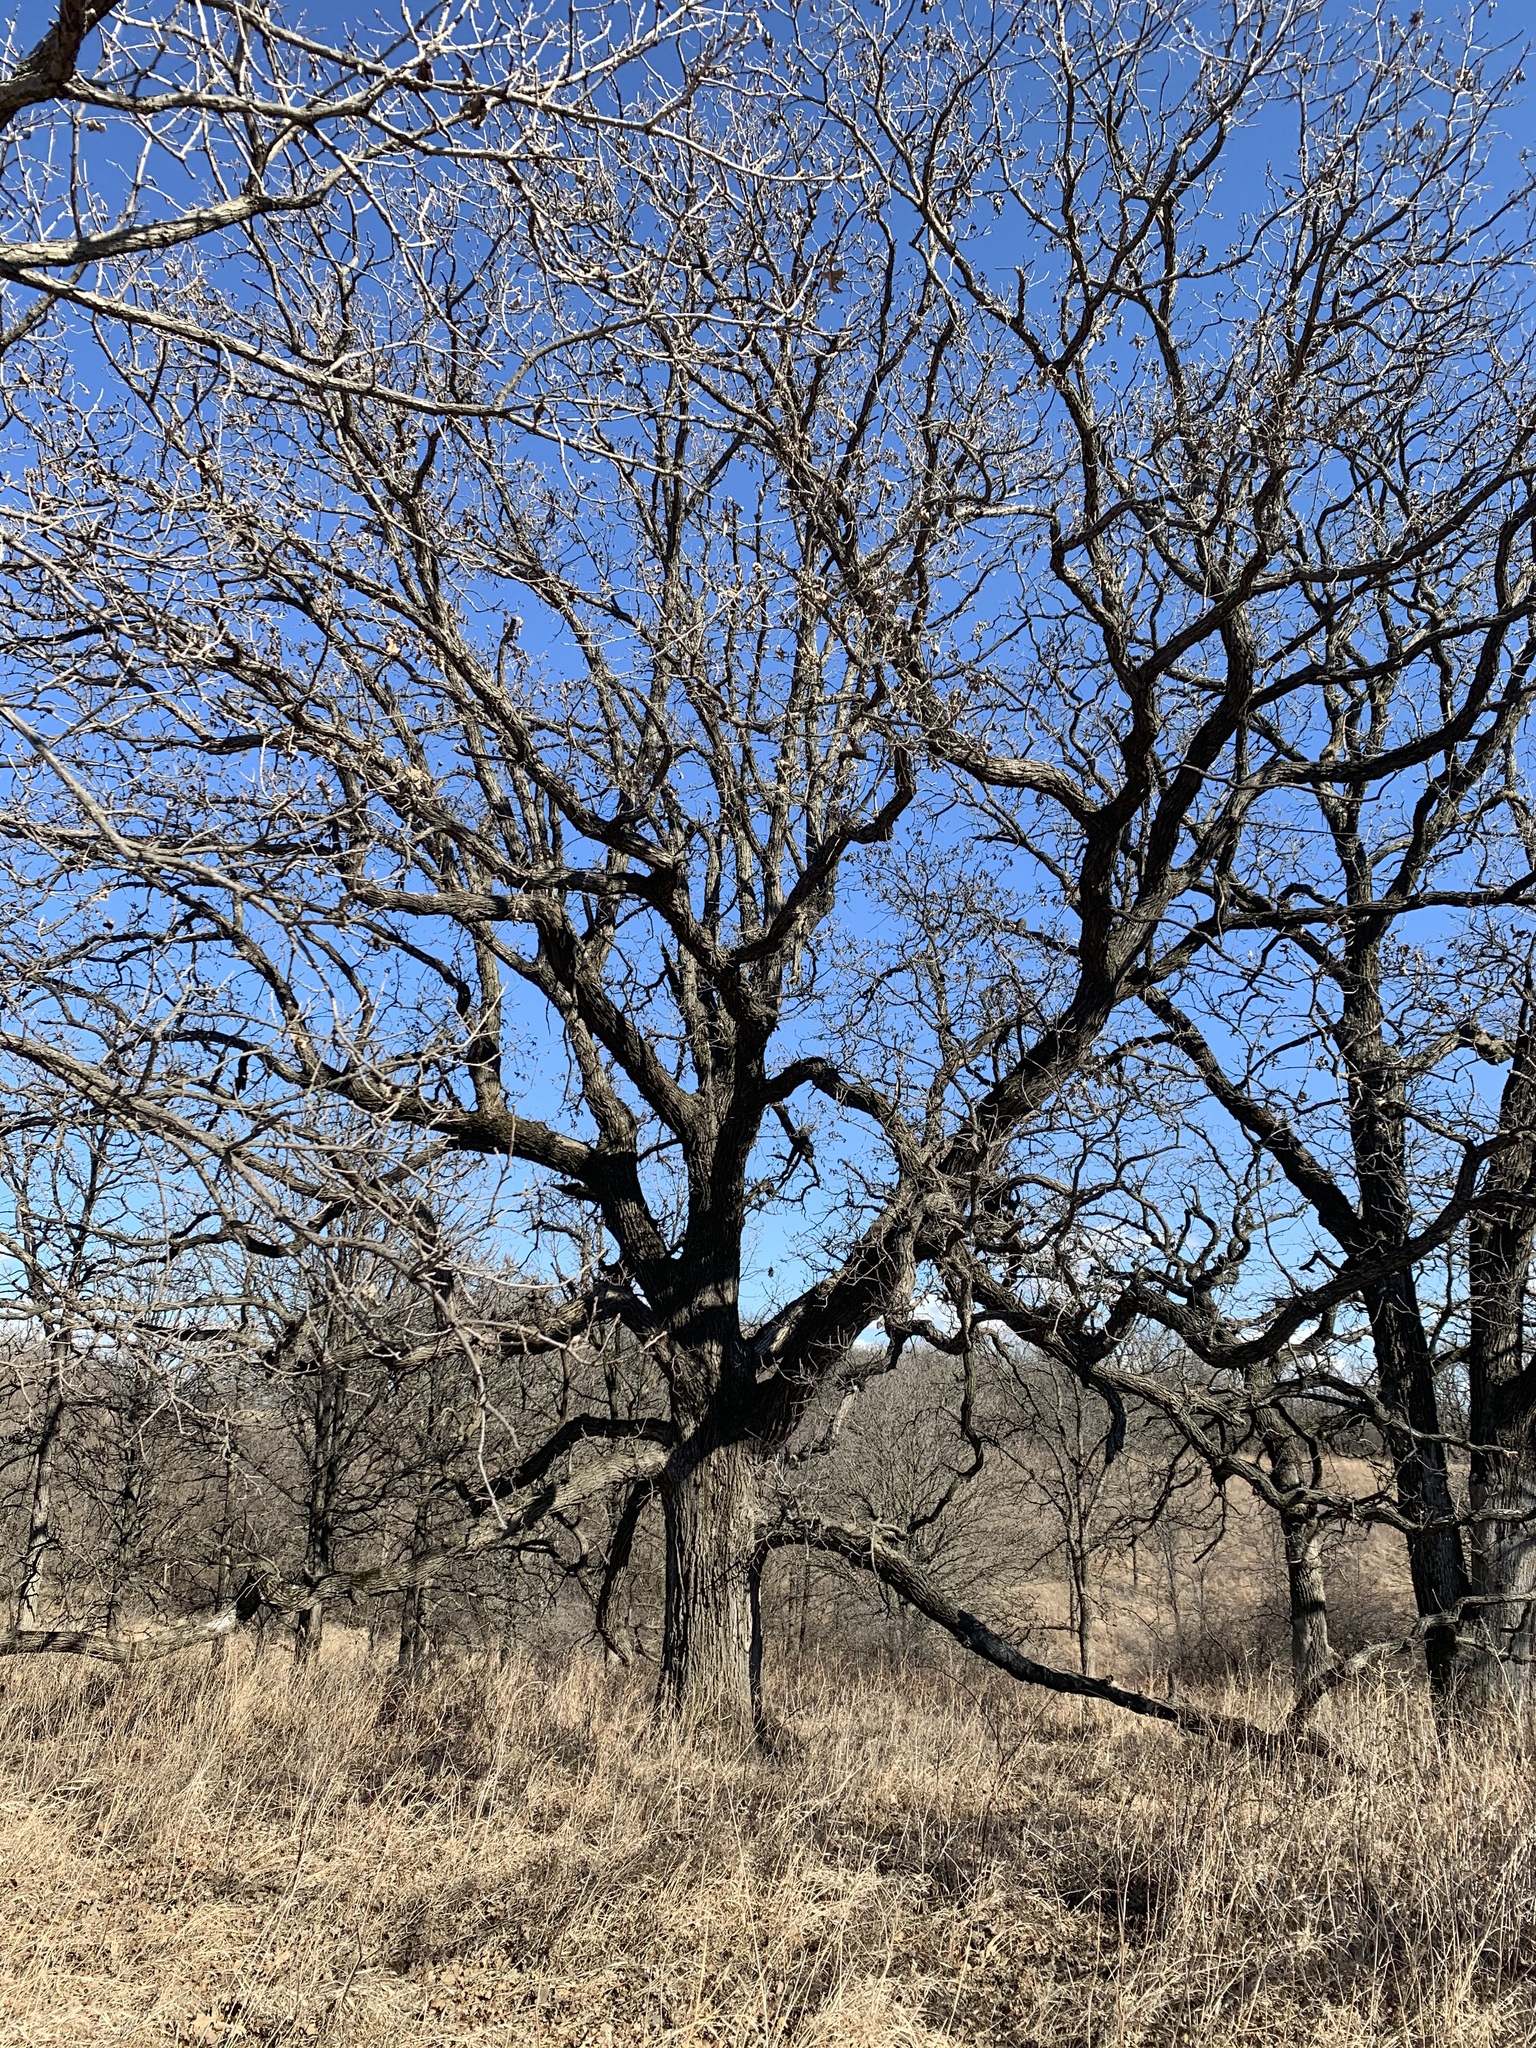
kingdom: Plantae
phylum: Tracheophyta
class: Magnoliopsida
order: Fagales
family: Fagaceae
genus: Quercus
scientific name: Quercus macrocarpa
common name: Bur oak
